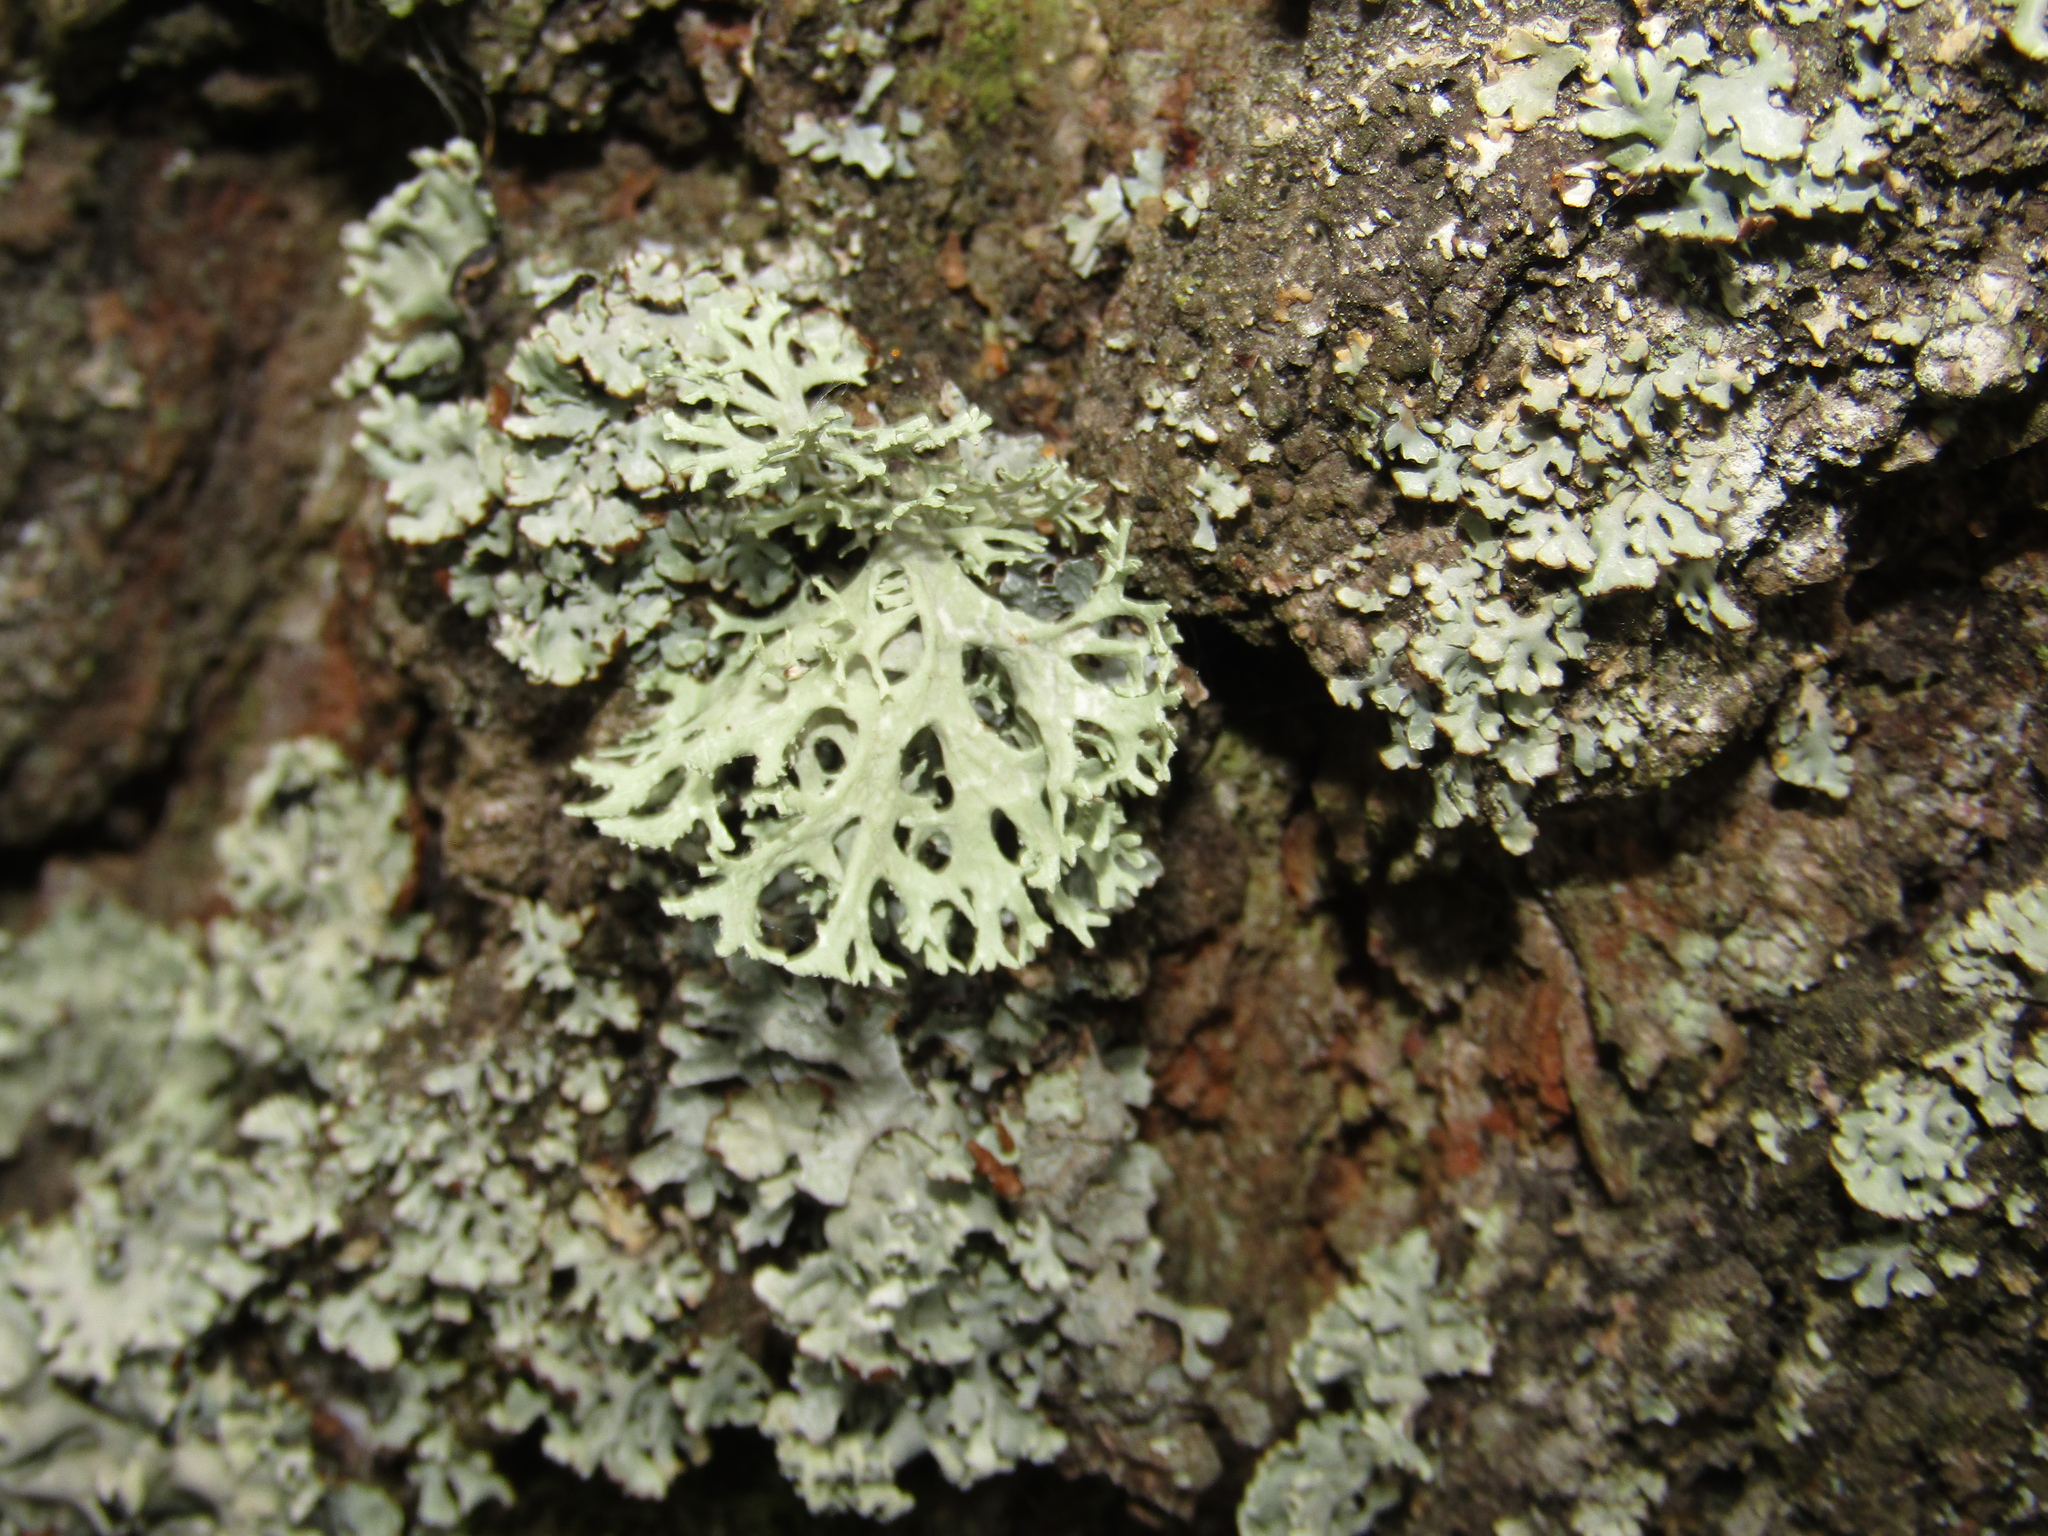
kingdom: Fungi
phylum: Ascomycota
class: Lecanoromycetes
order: Lecanorales
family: Parmeliaceae
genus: Evernia
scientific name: Evernia prunastri
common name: Oak moss
